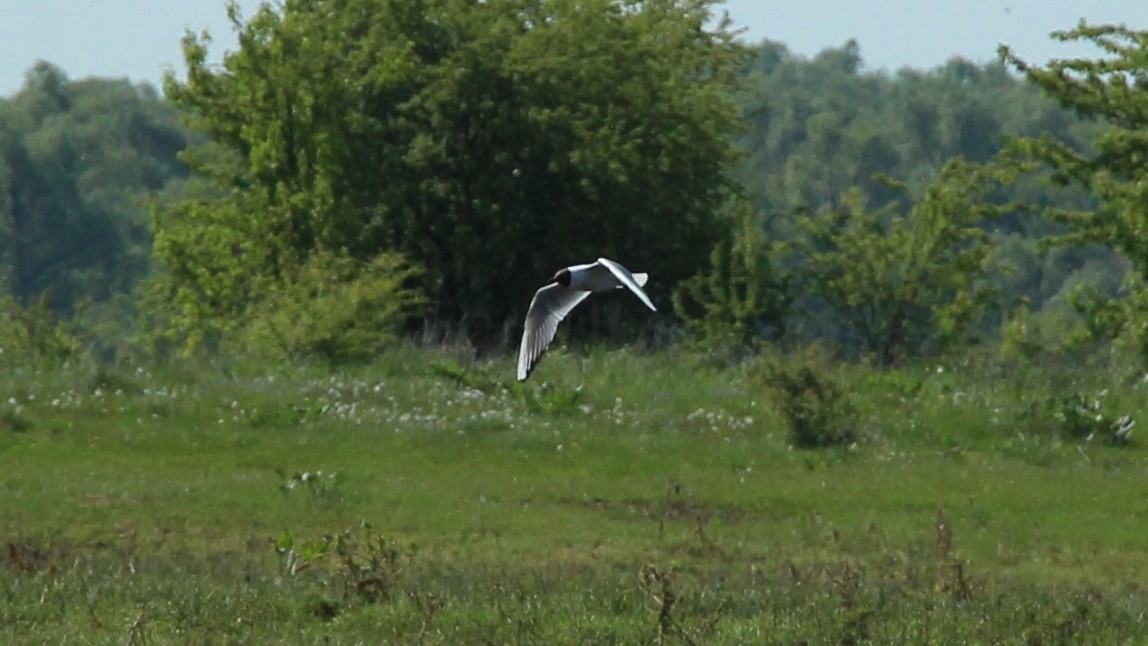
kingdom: Animalia
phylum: Chordata
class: Aves
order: Charadriiformes
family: Laridae
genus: Chroicocephalus
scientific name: Chroicocephalus ridibundus
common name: Black-headed gull
